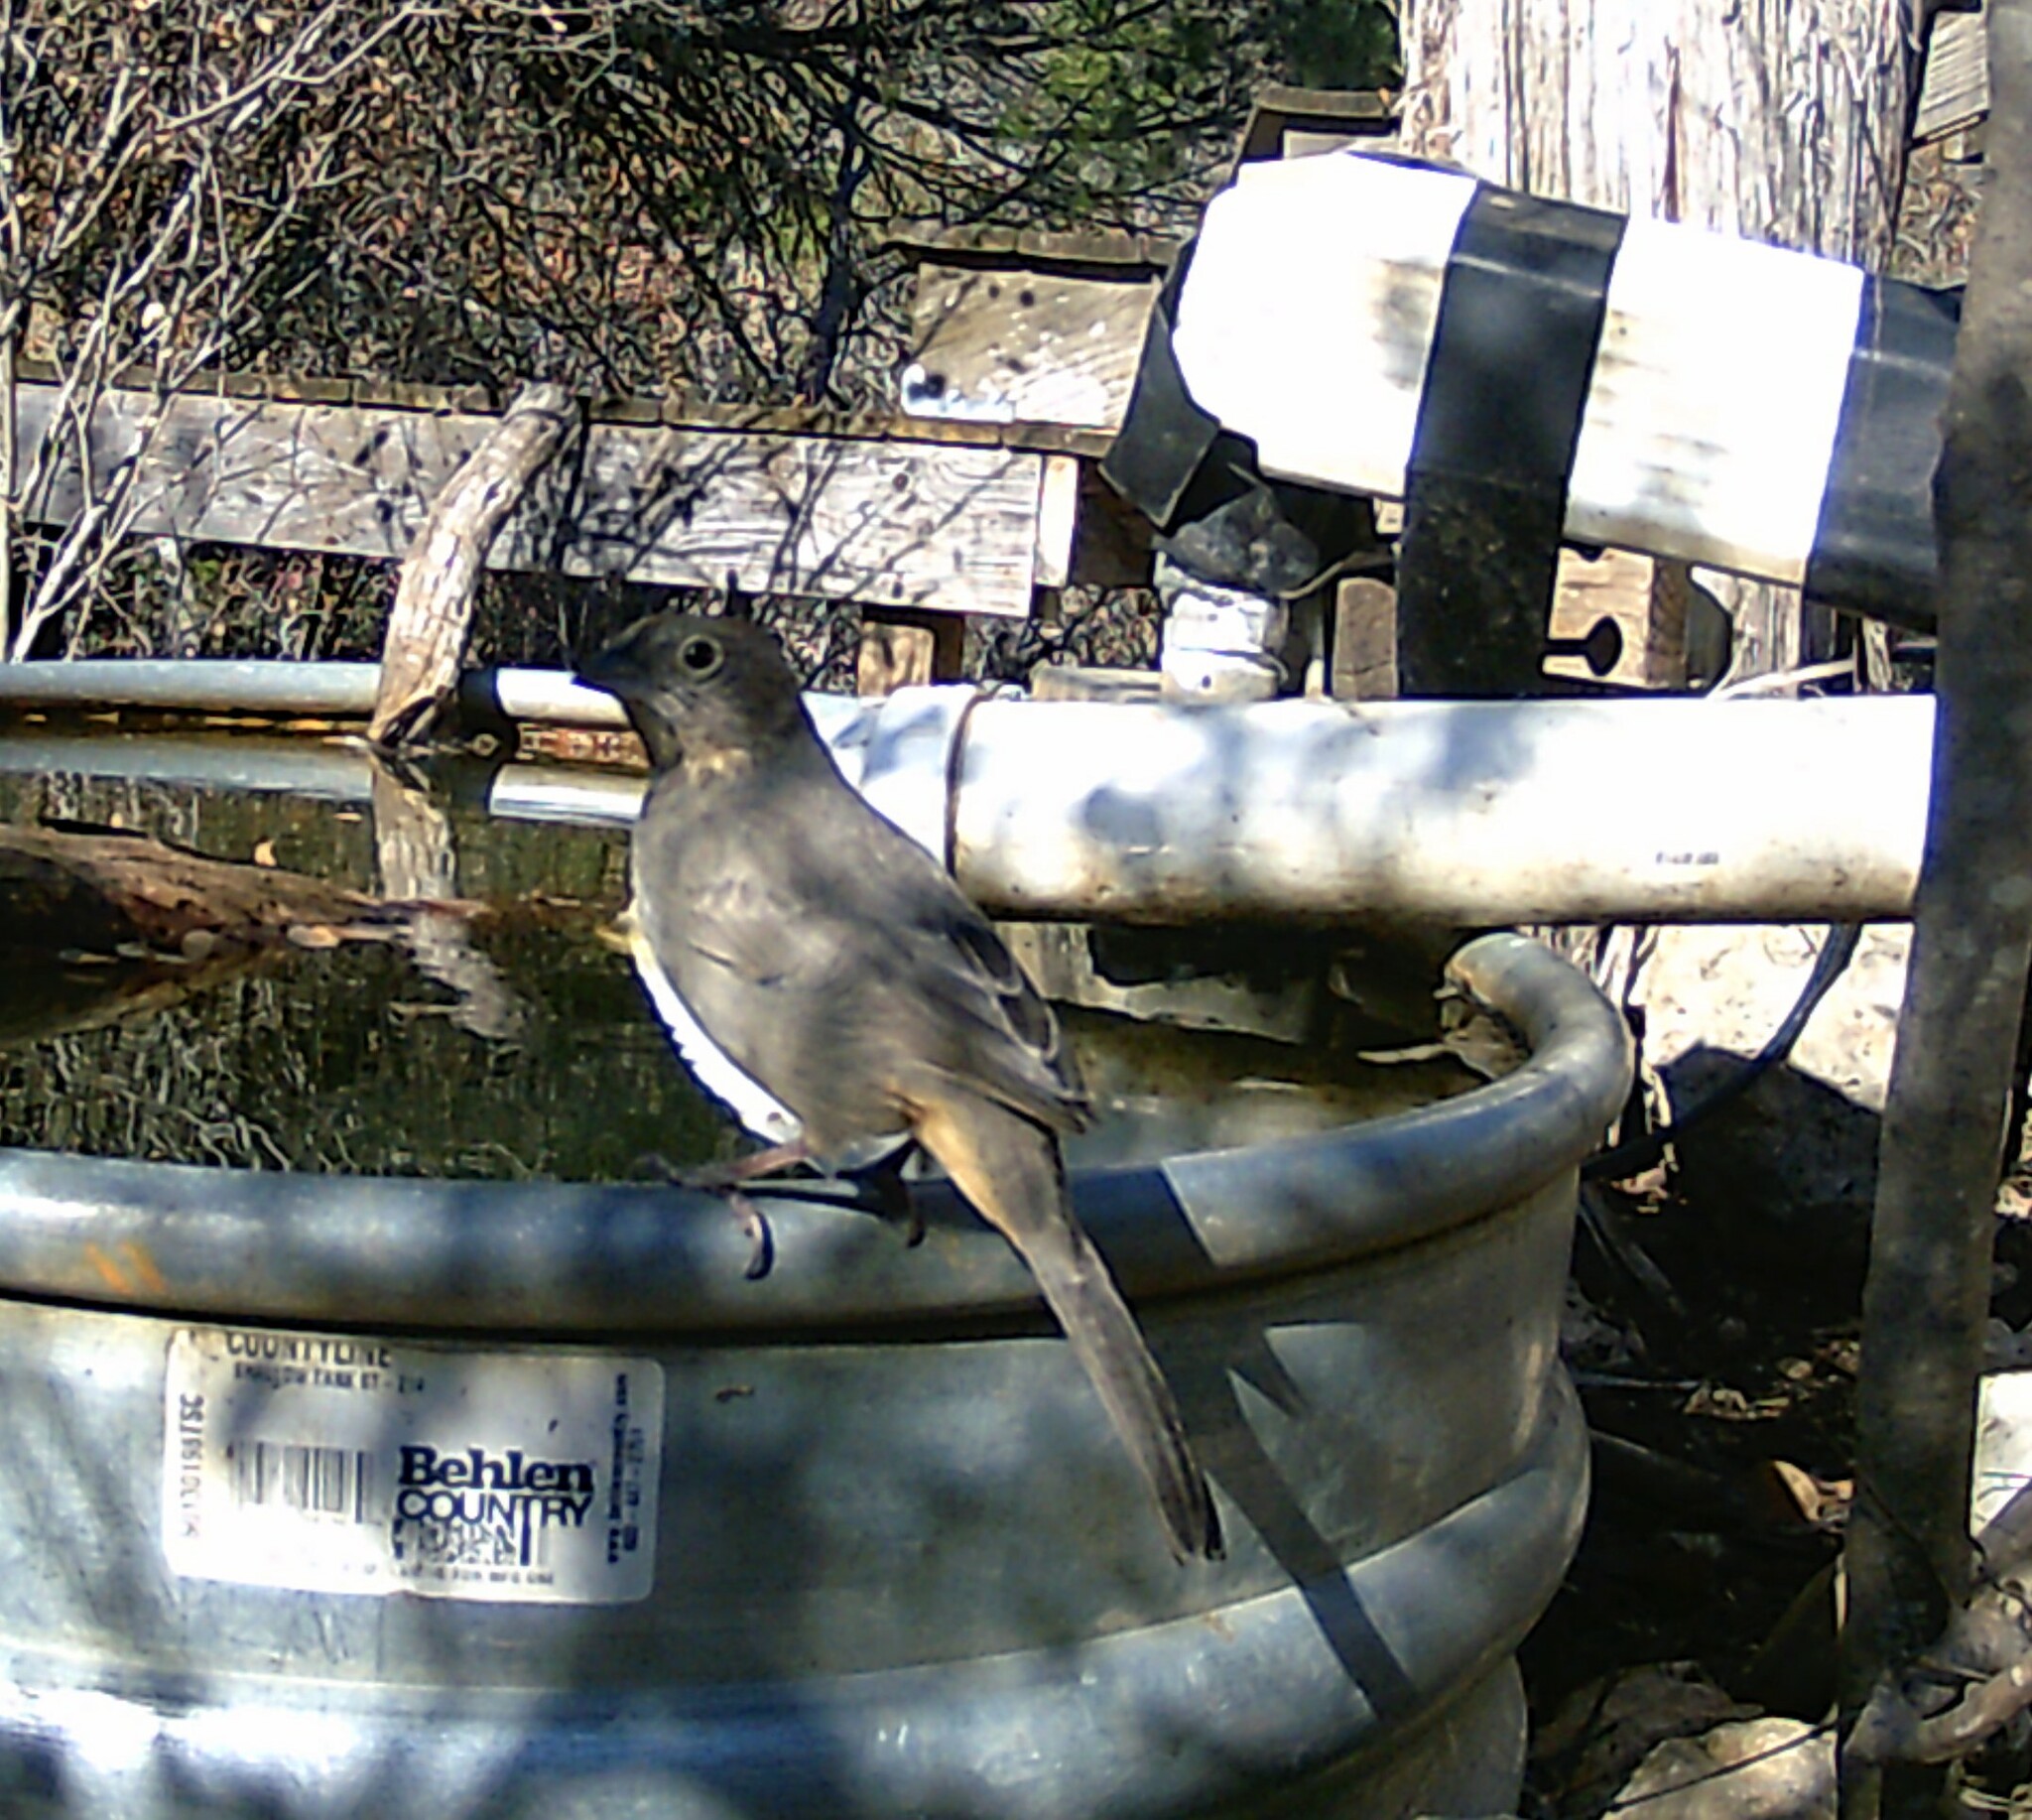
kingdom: Animalia
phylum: Chordata
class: Aves
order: Passeriformes
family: Passerellidae
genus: Melozone
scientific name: Melozone fusca
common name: Canyon towhee
